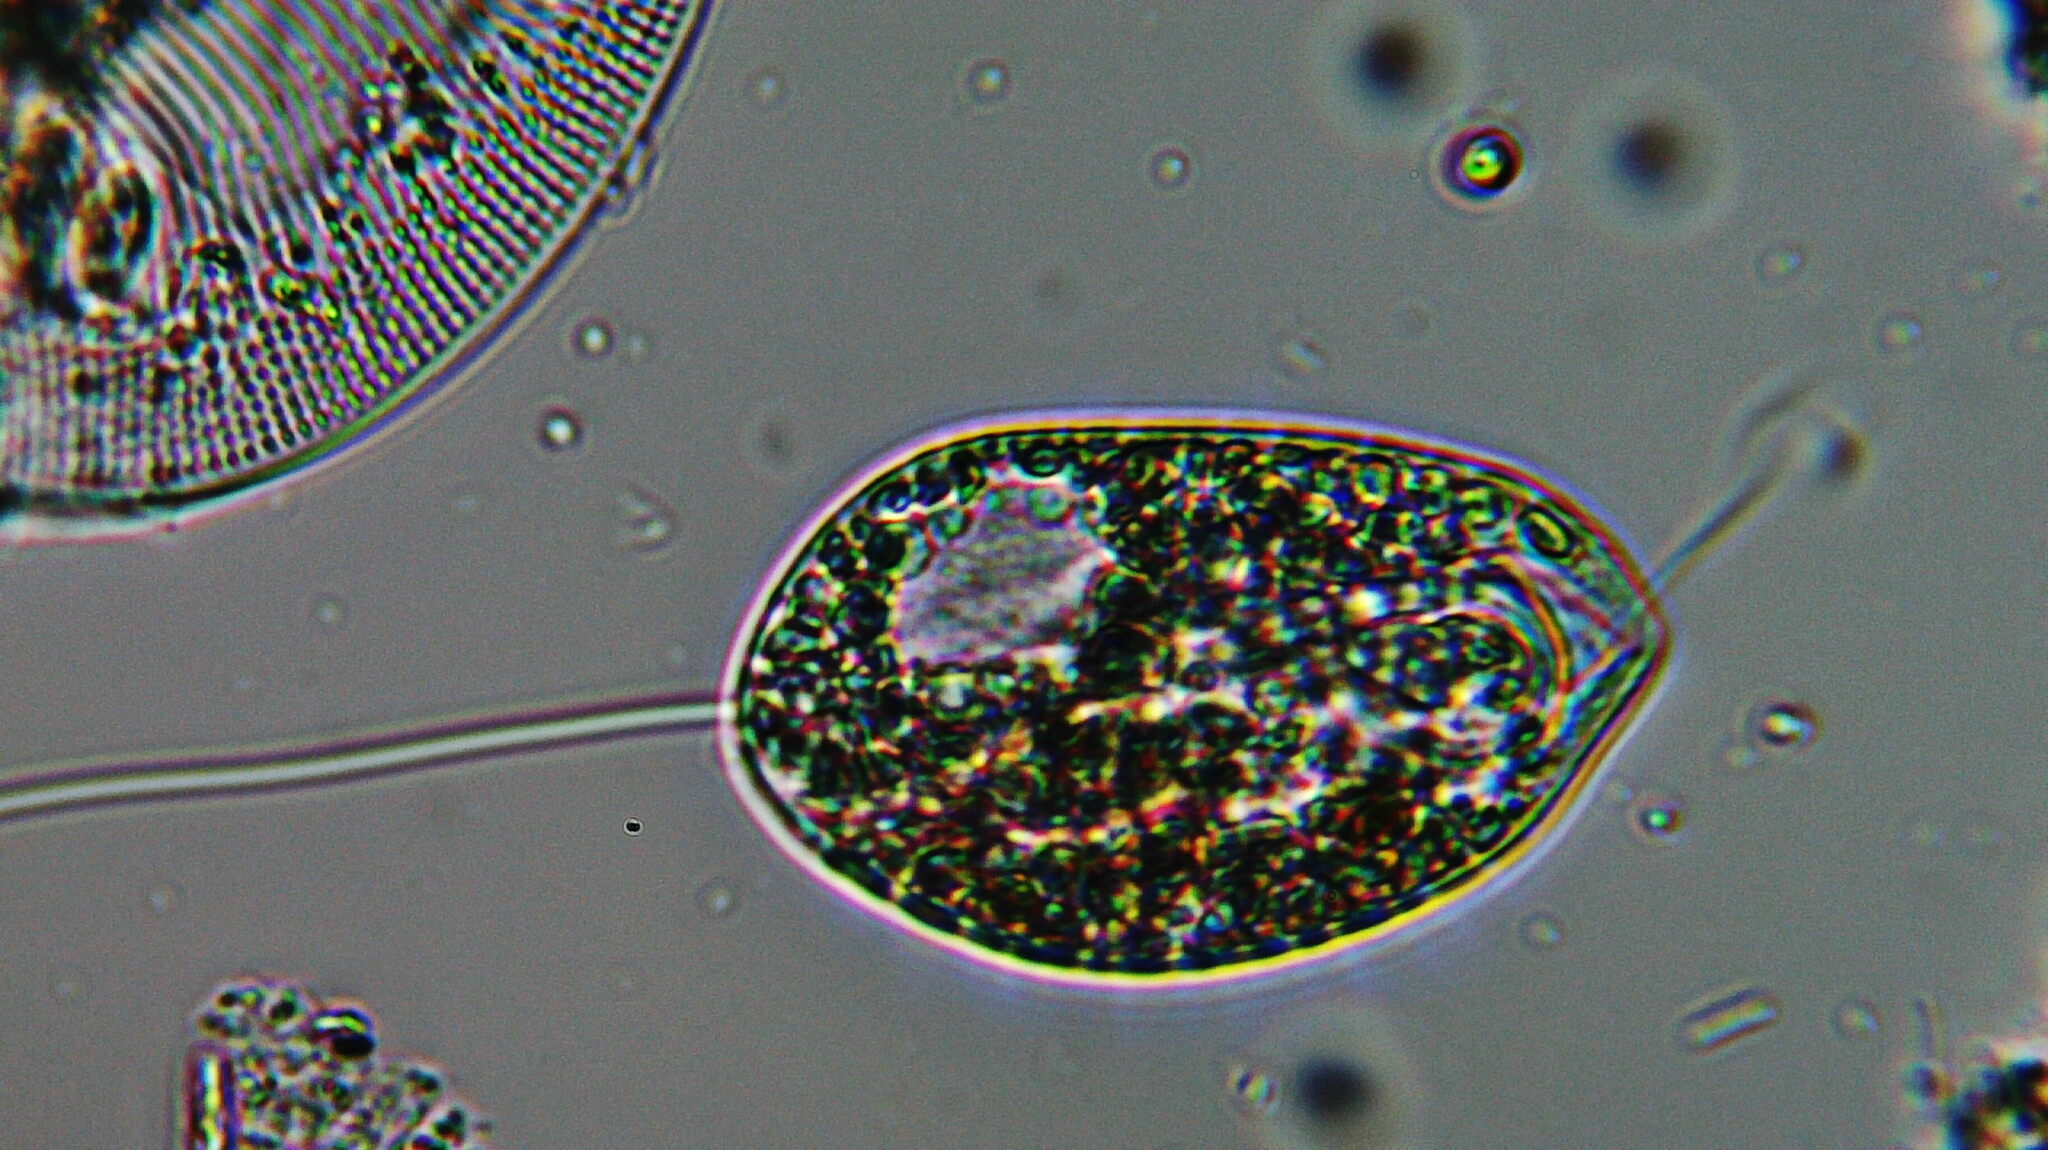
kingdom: Protozoa
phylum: Euglenozoa
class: Peranemea
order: Anisonemida
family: Anisonemidae
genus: Anisonema
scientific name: Anisonema acinus
